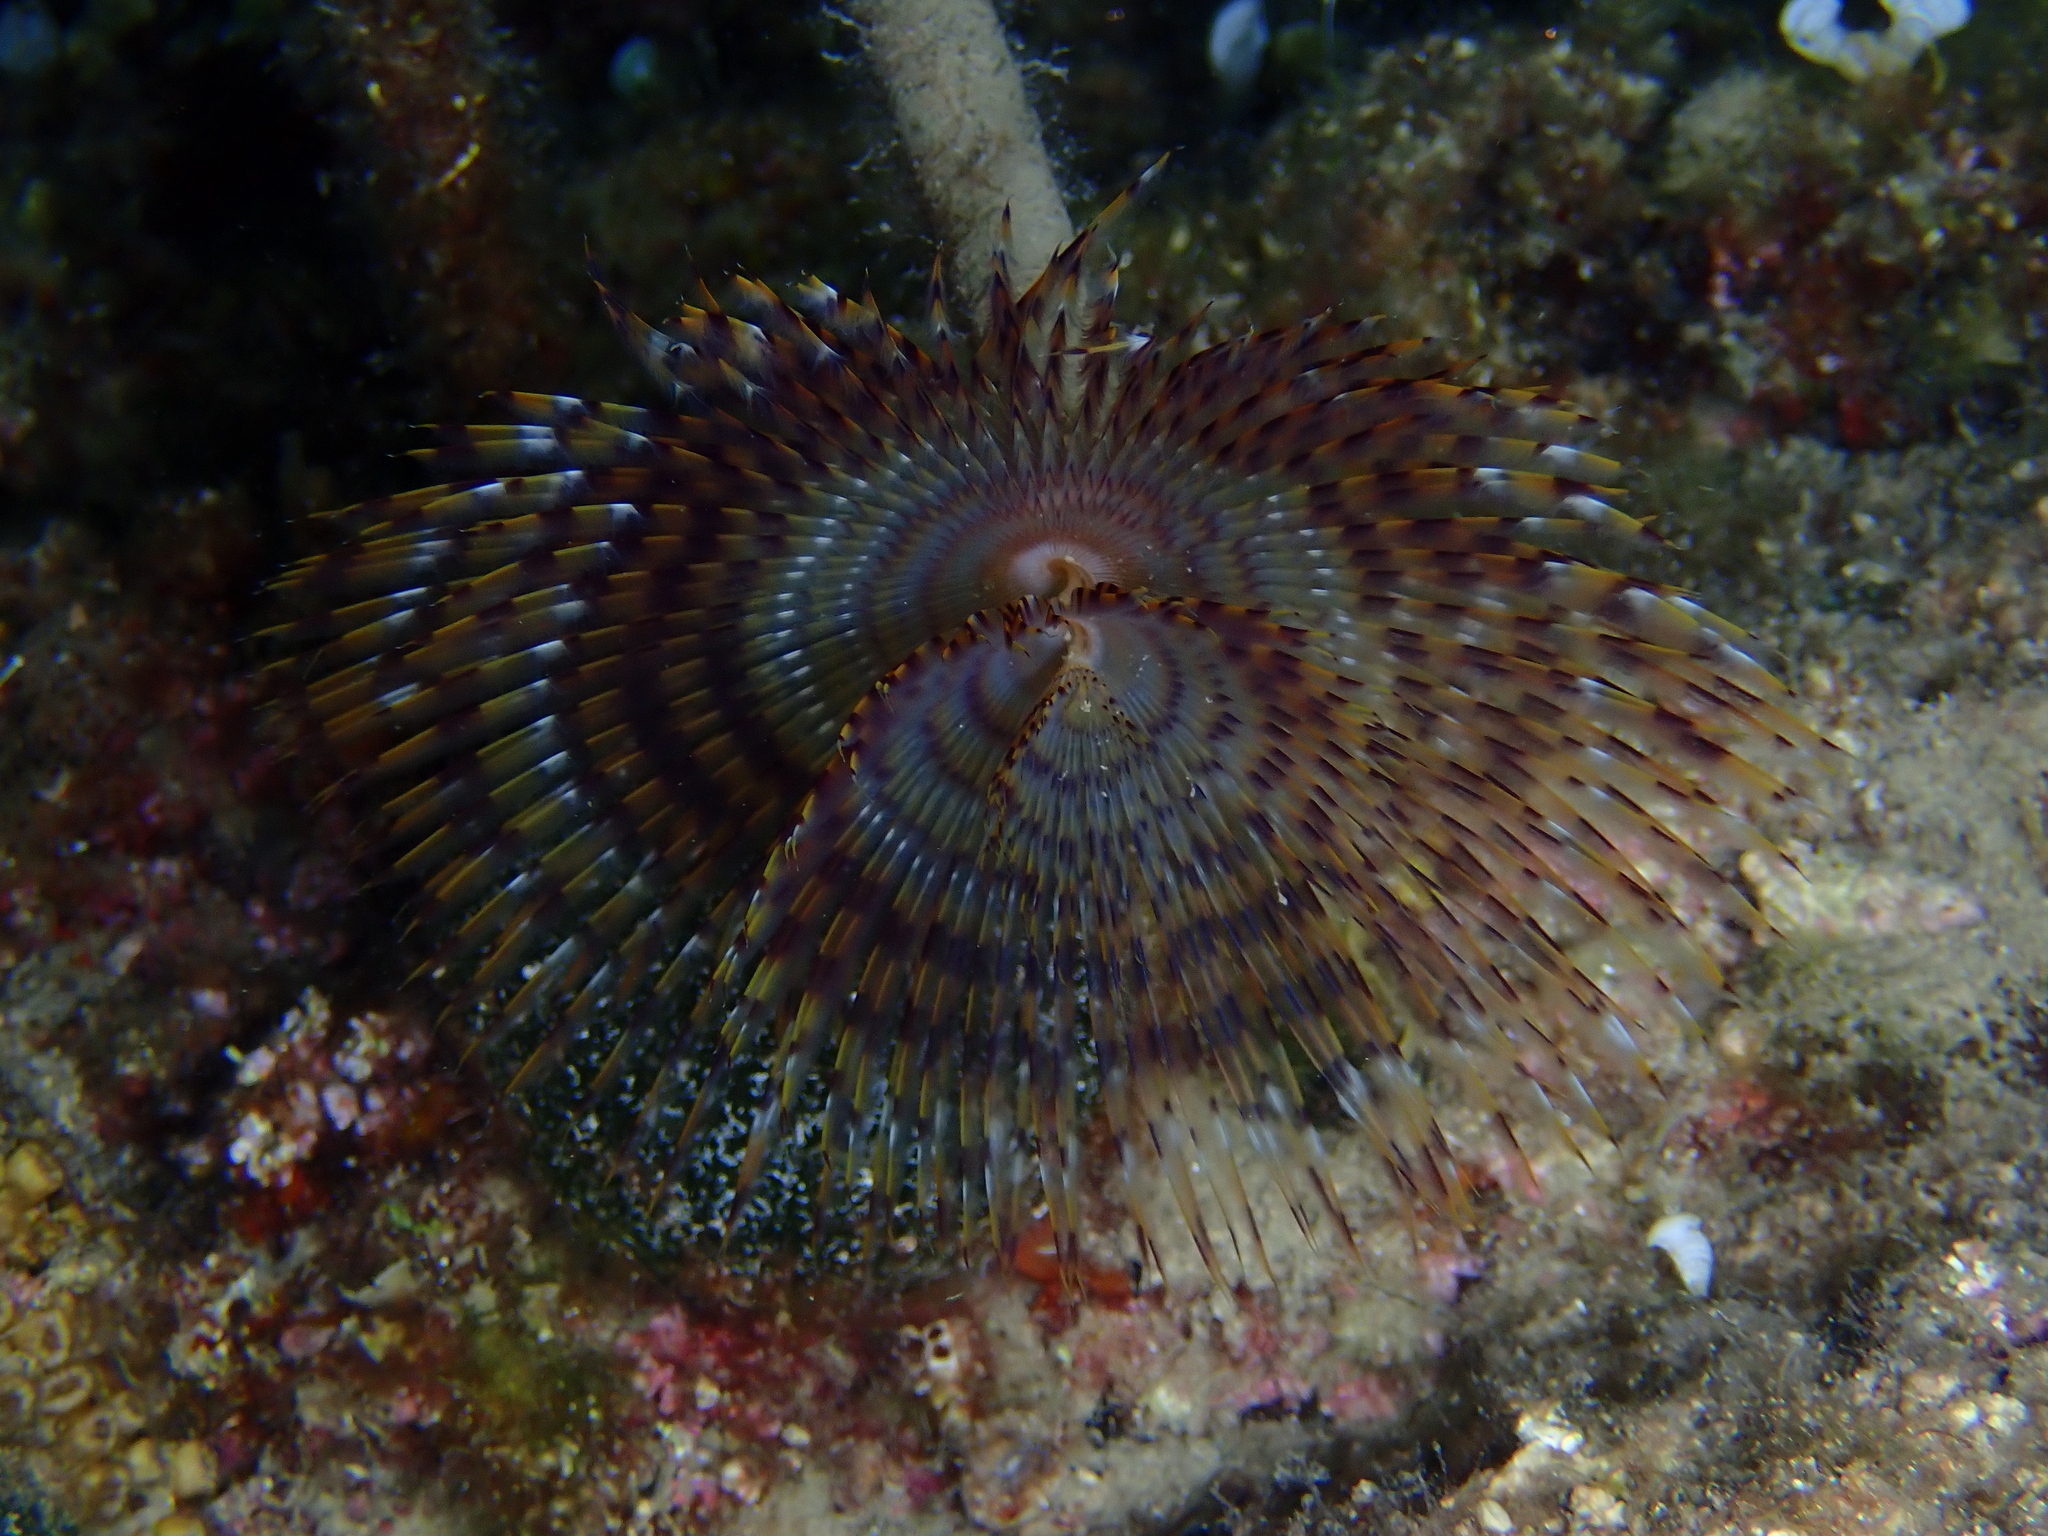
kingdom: Animalia
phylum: Annelida
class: Polychaeta
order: Sabellida
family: Sabellidae
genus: Sabella
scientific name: Sabella spallanzanii
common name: Feather duster worm
